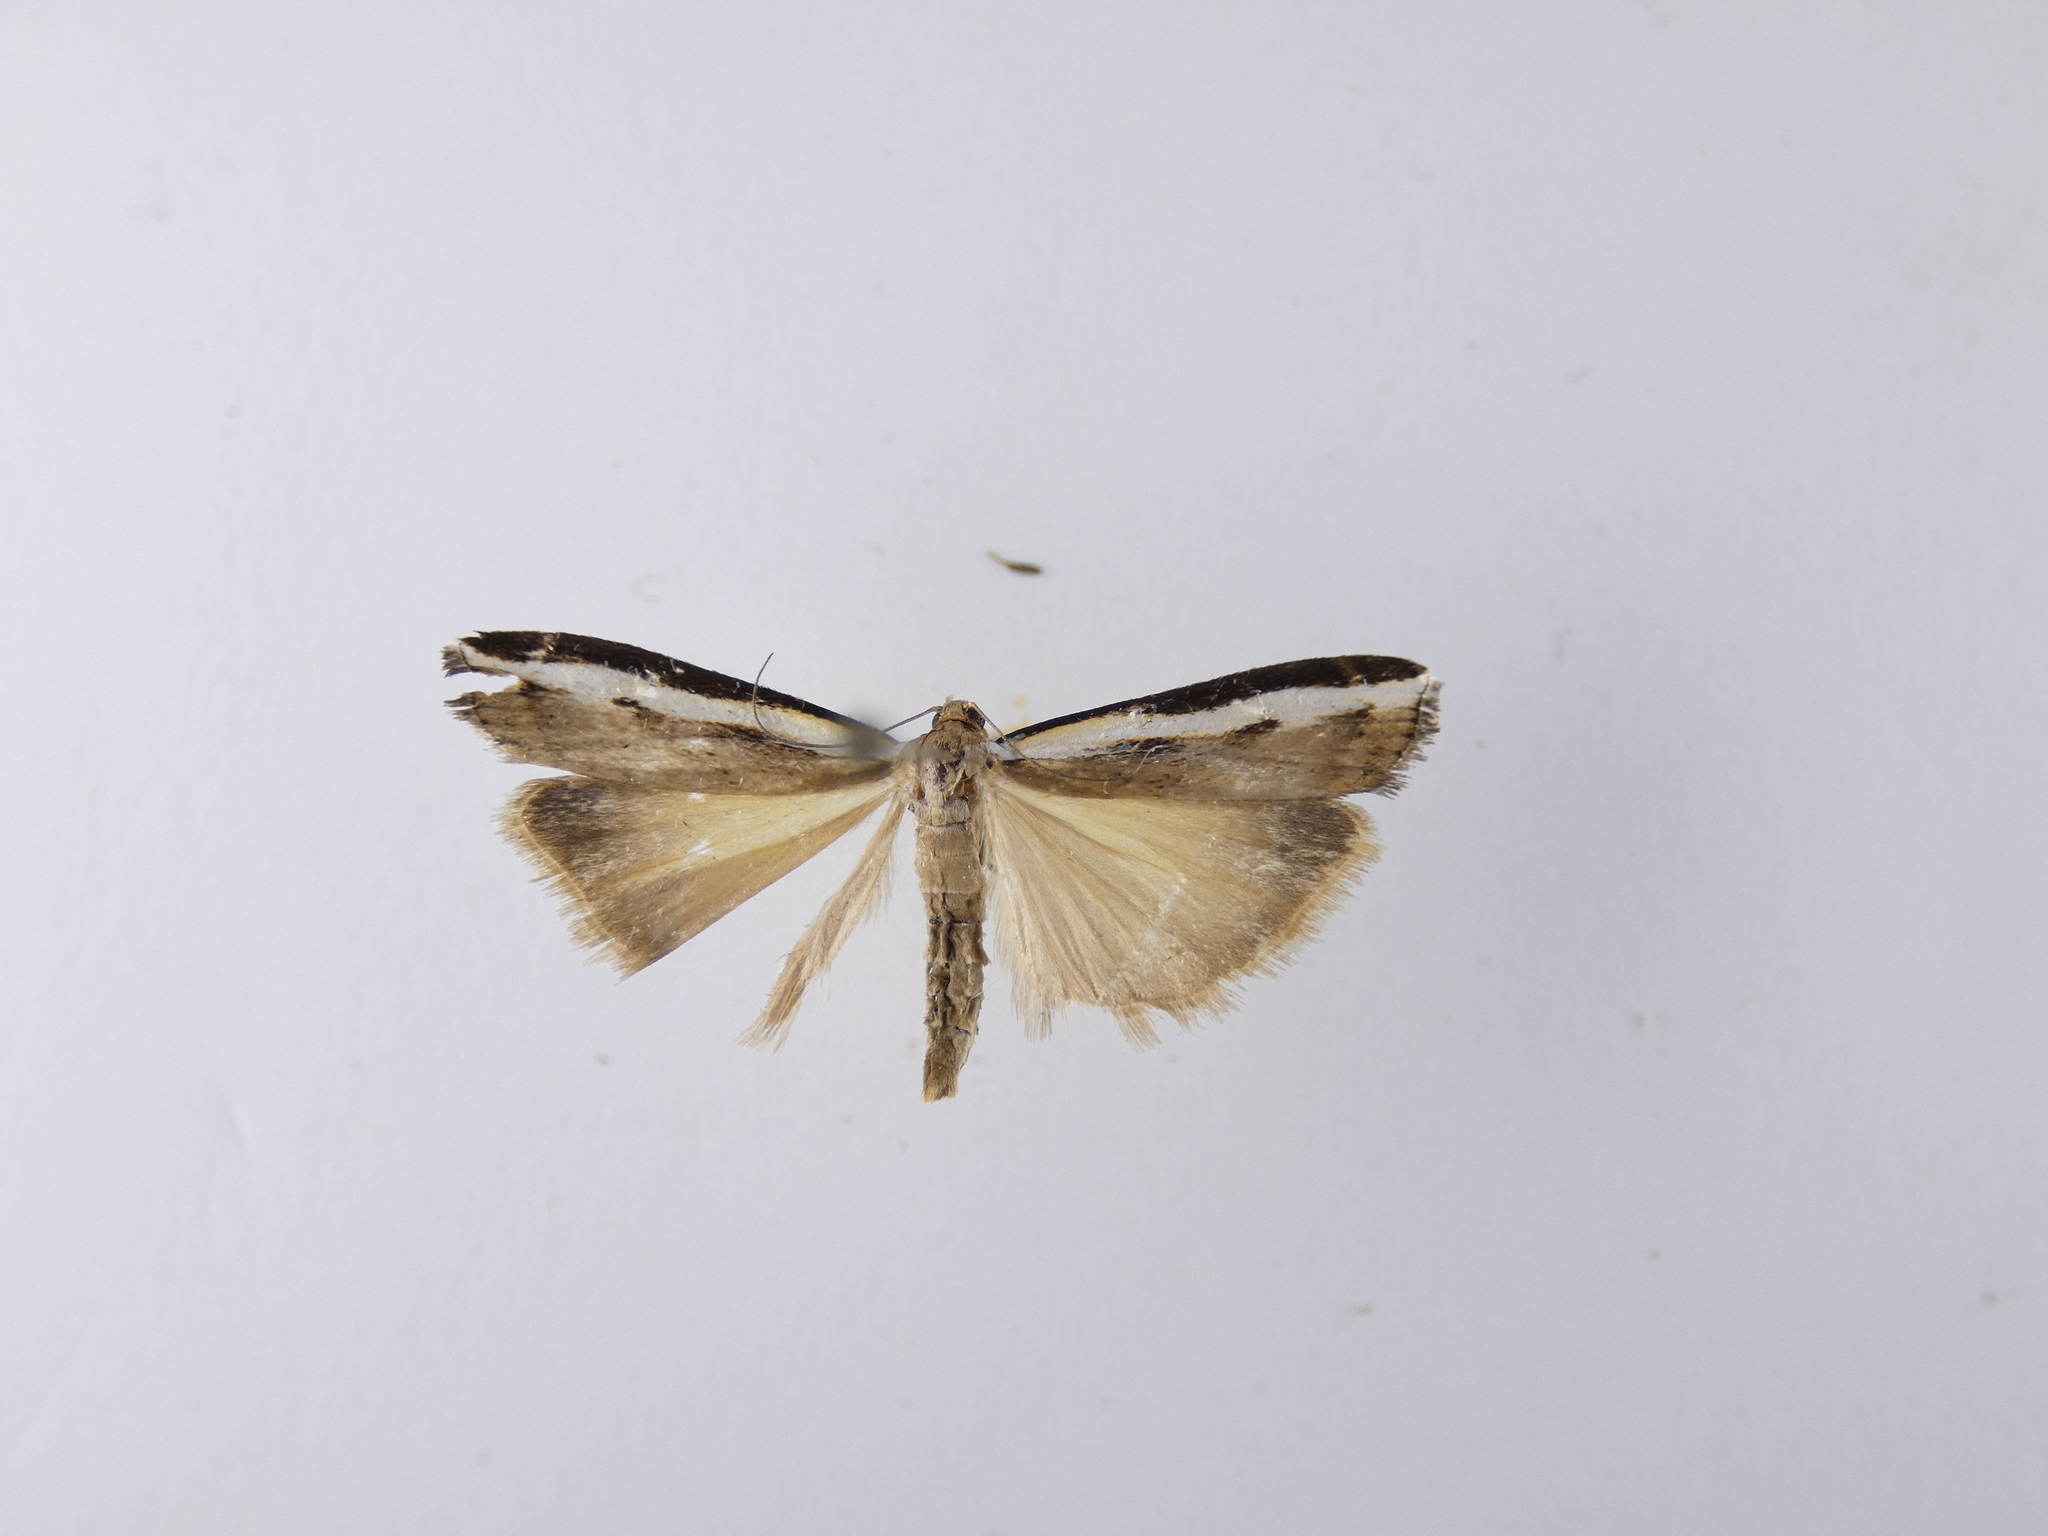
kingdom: Animalia
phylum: Arthropoda
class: Insecta
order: Lepidoptera
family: Crambidae
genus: Orocrambus
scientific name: Orocrambus flexuosellus
